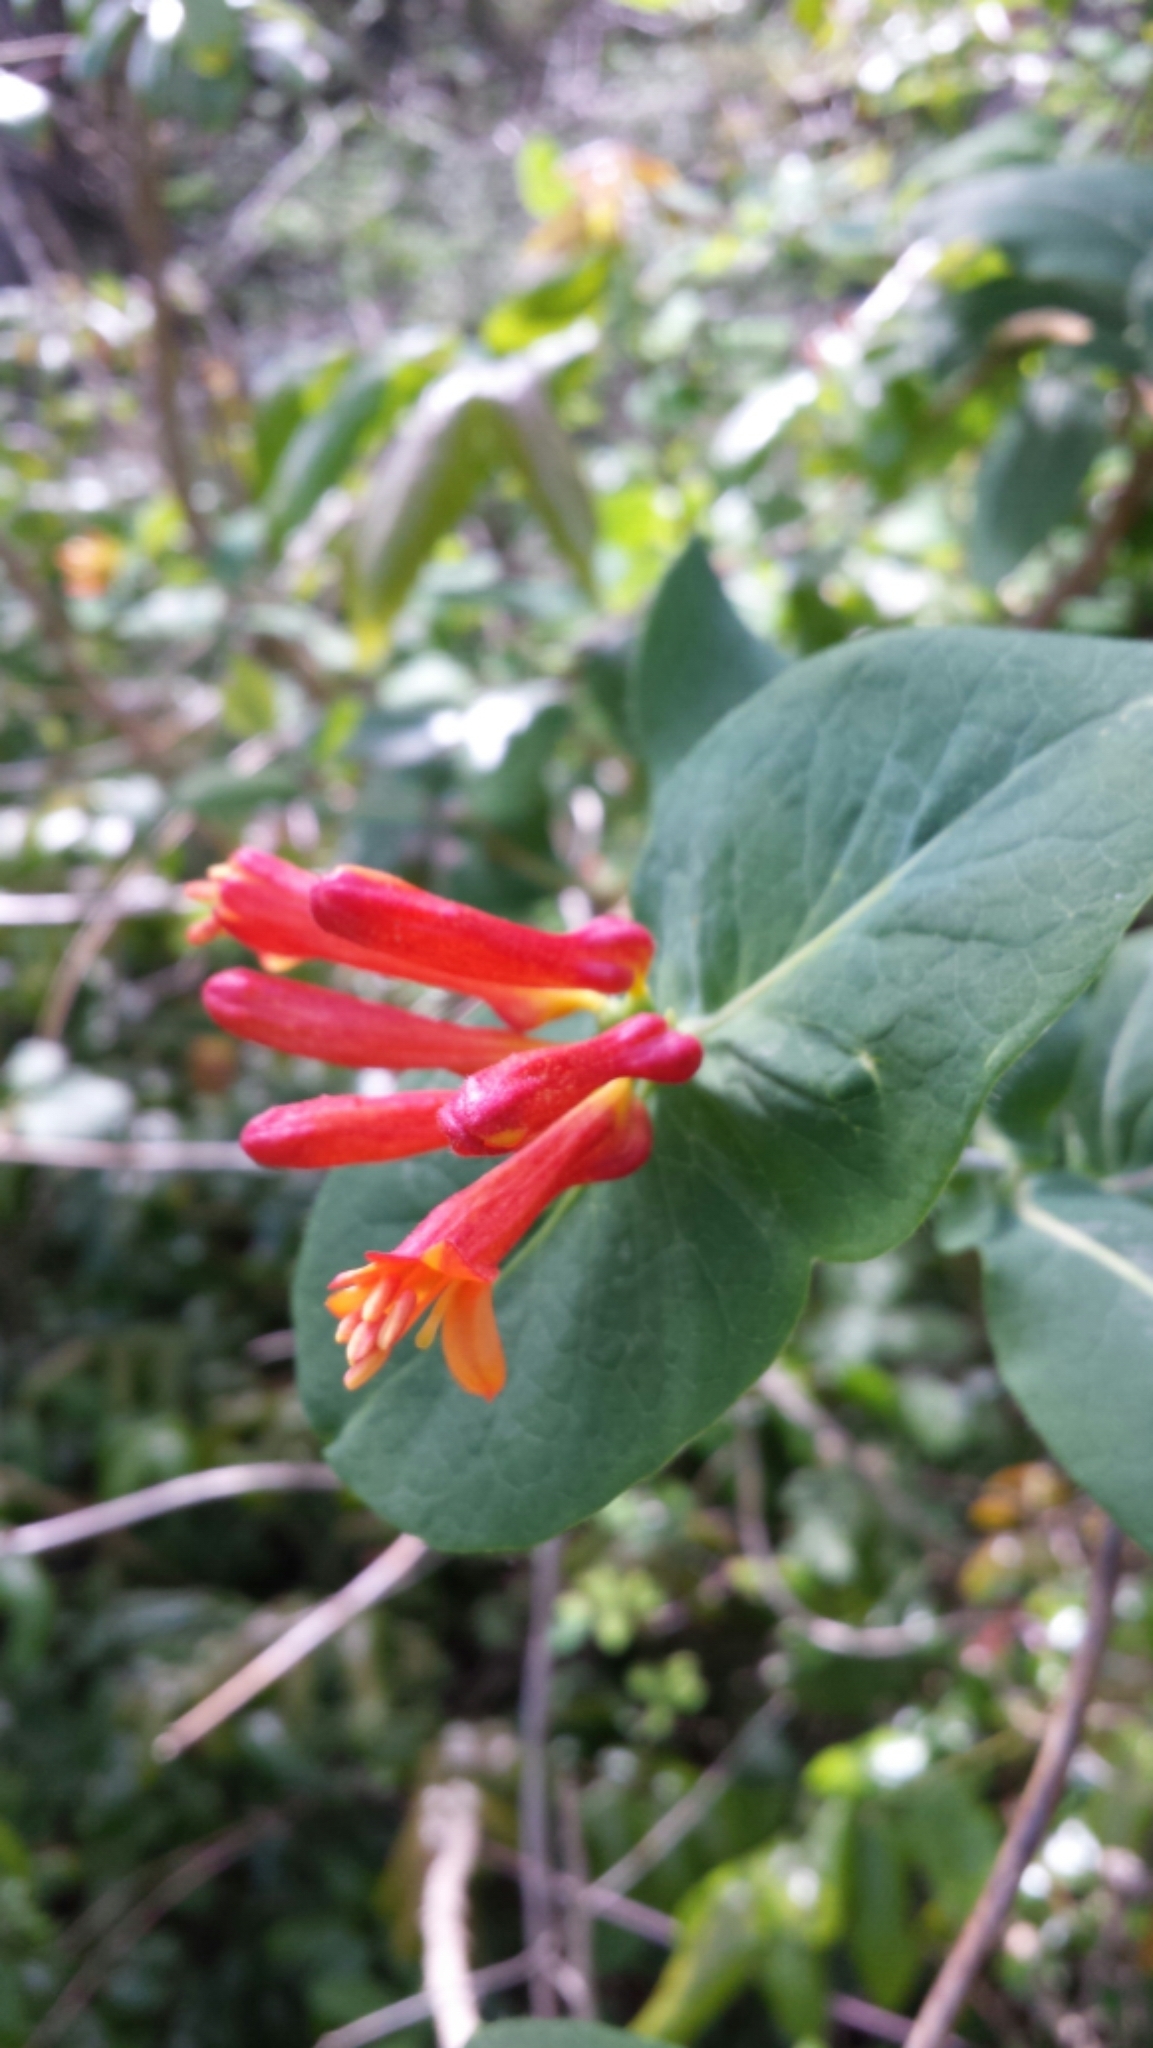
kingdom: Plantae
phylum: Tracheophyta
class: Magnoliopsida
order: Dipsacales
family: Caprifoliaceae
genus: Lonicera
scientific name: Lonicera ciliosa
